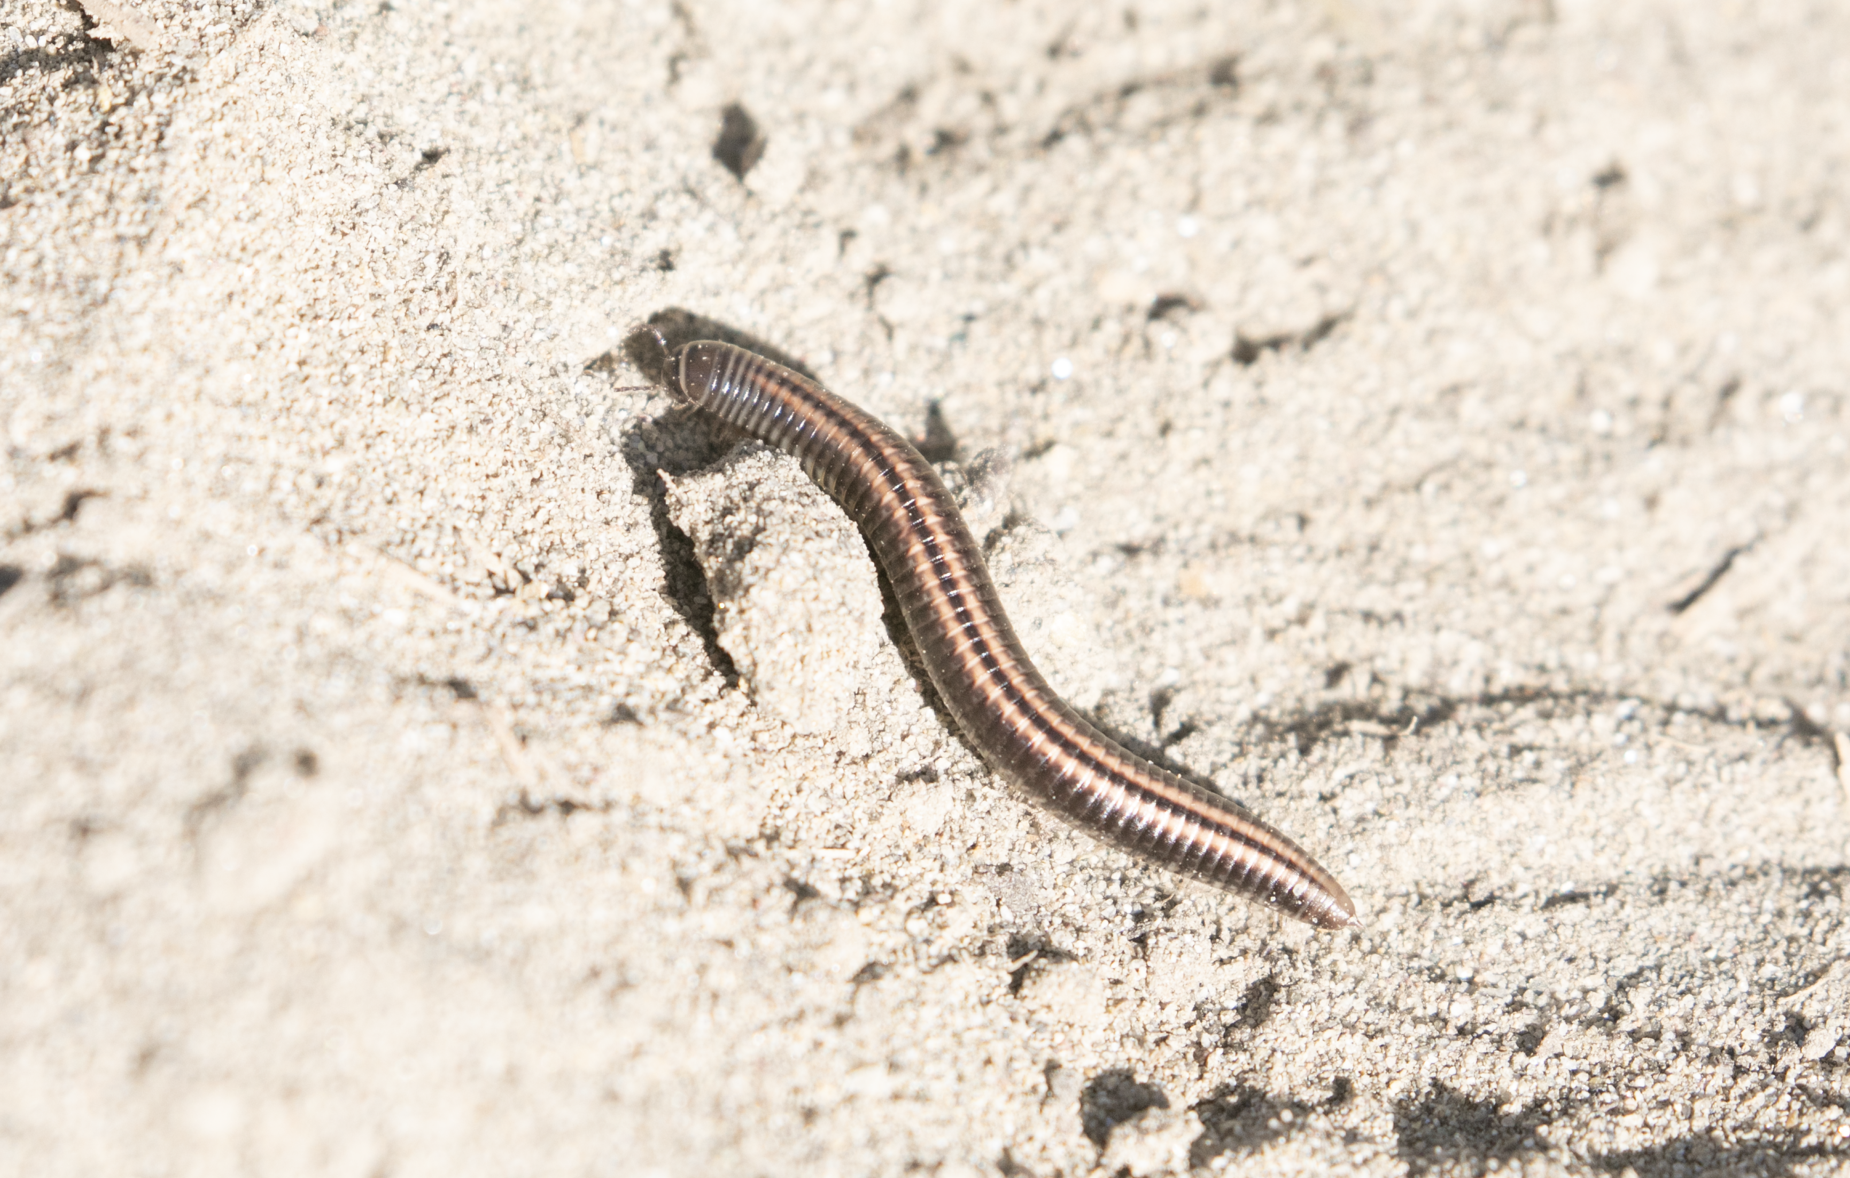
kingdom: Animalia
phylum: Arthropoda
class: Diplopoda
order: Julida
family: Julidae
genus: Ommatoiulus
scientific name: Ommatoiulus sabulosus
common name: Striped millipede
